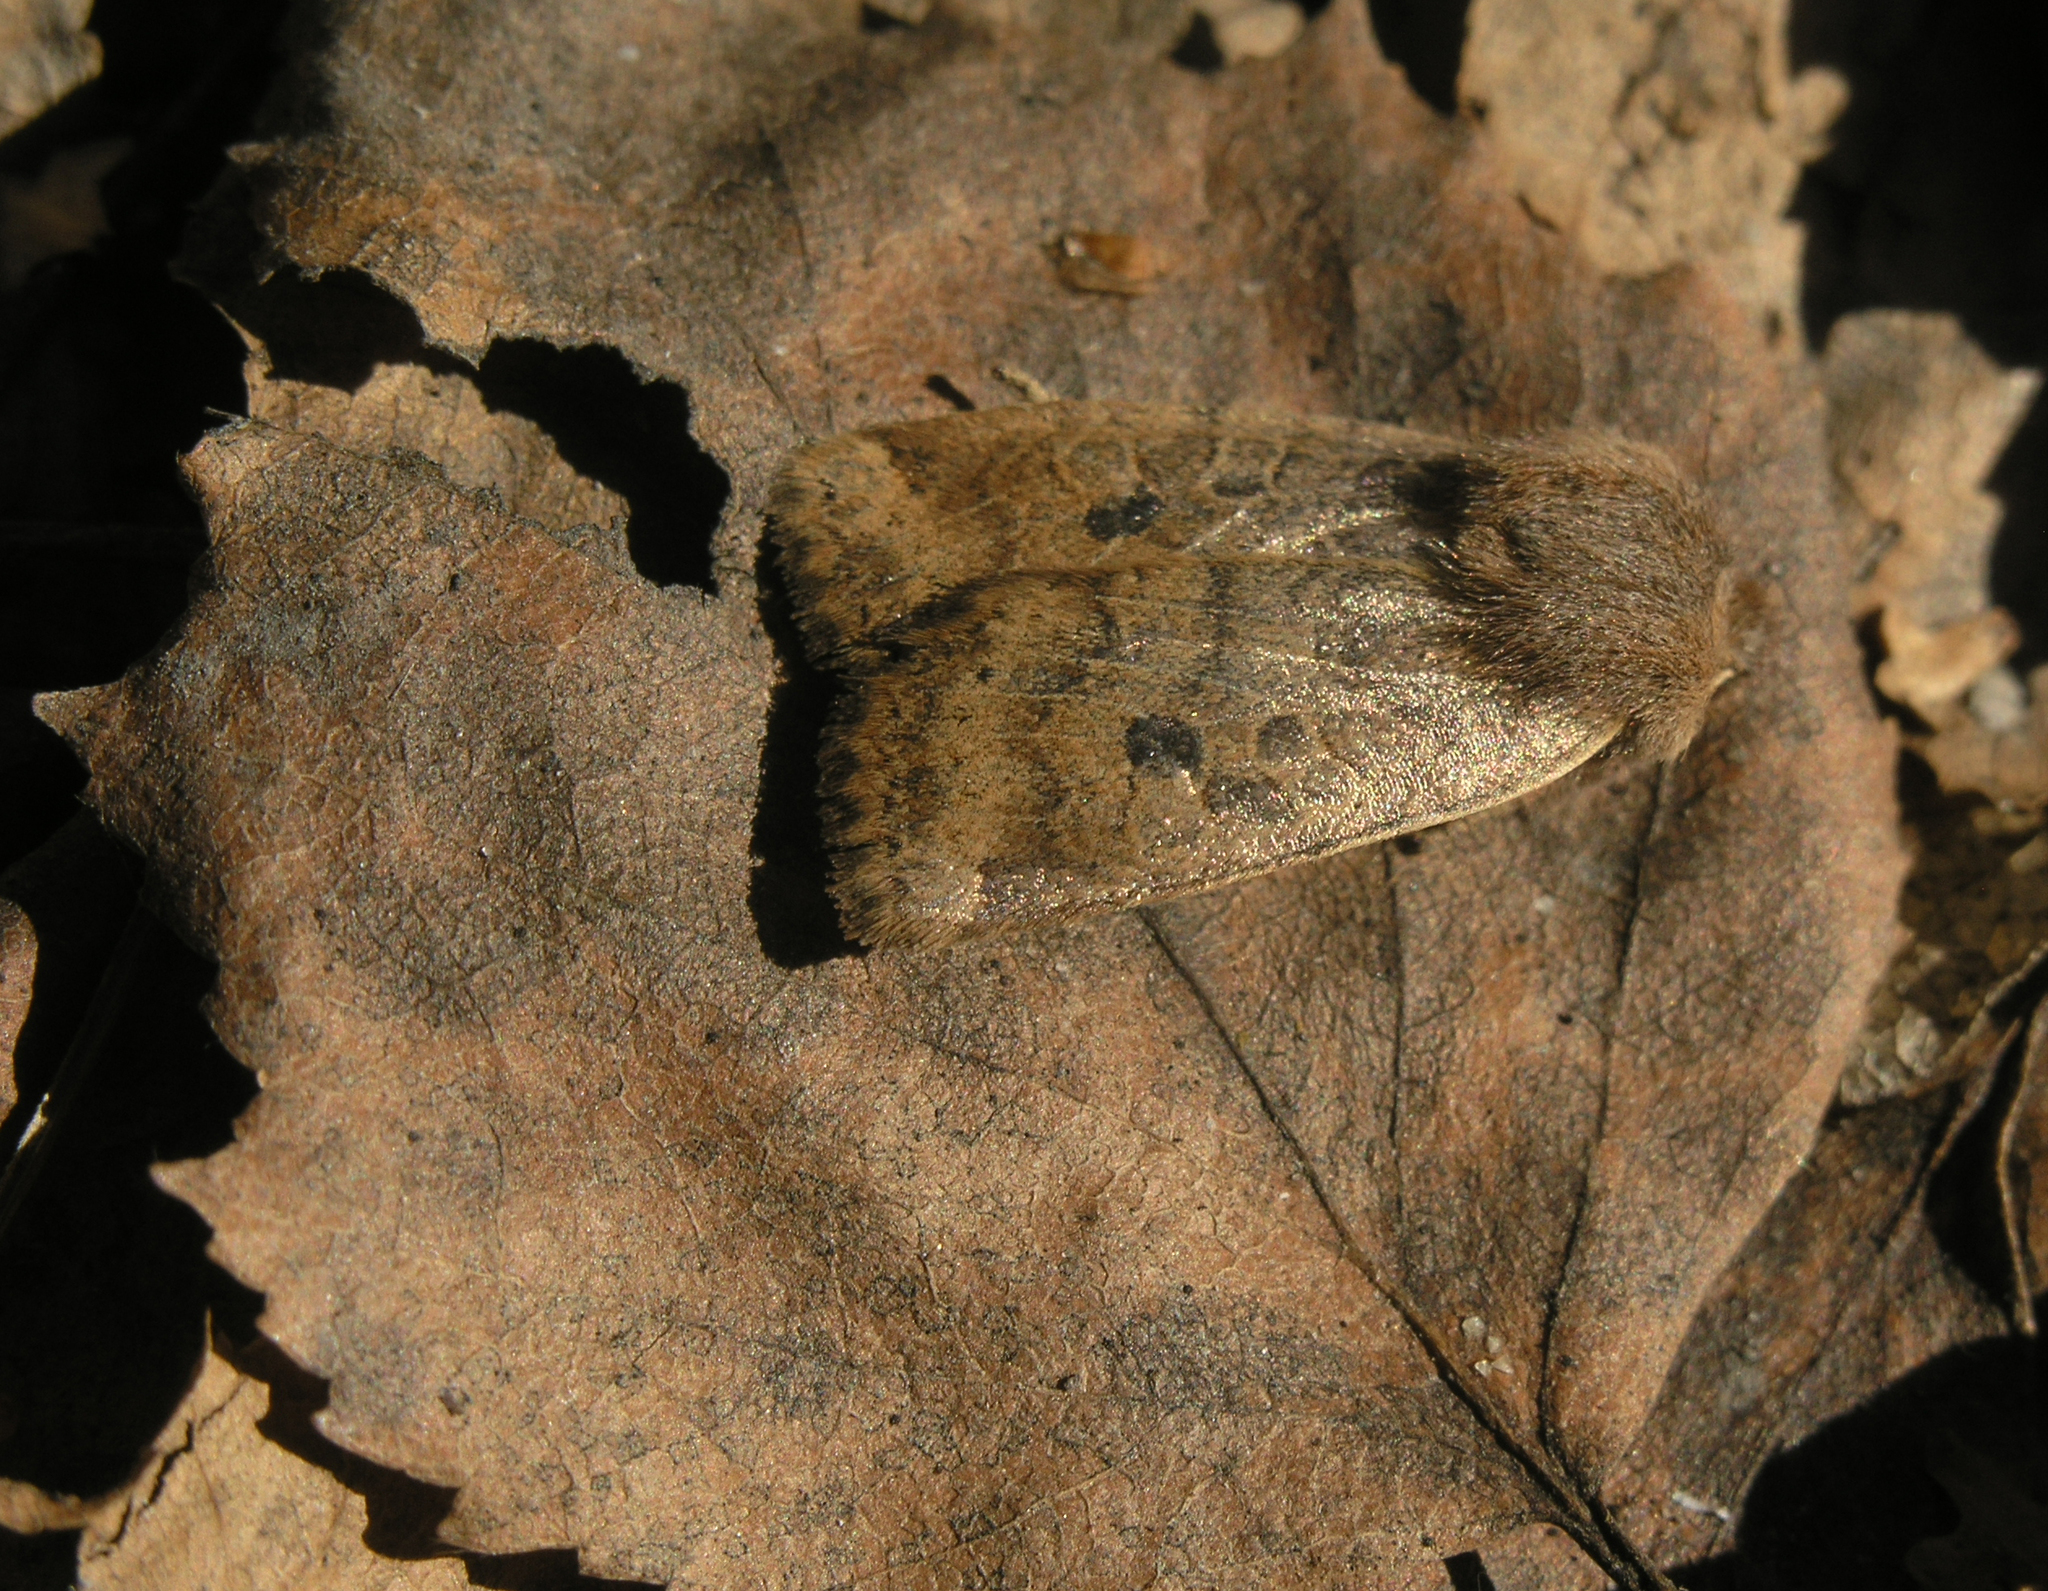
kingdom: Animalia
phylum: Arthropoda
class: Insecta
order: Lepidoptera
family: Noctuidae
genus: Conistra
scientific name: Conistra vaccinii
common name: Chestnut
